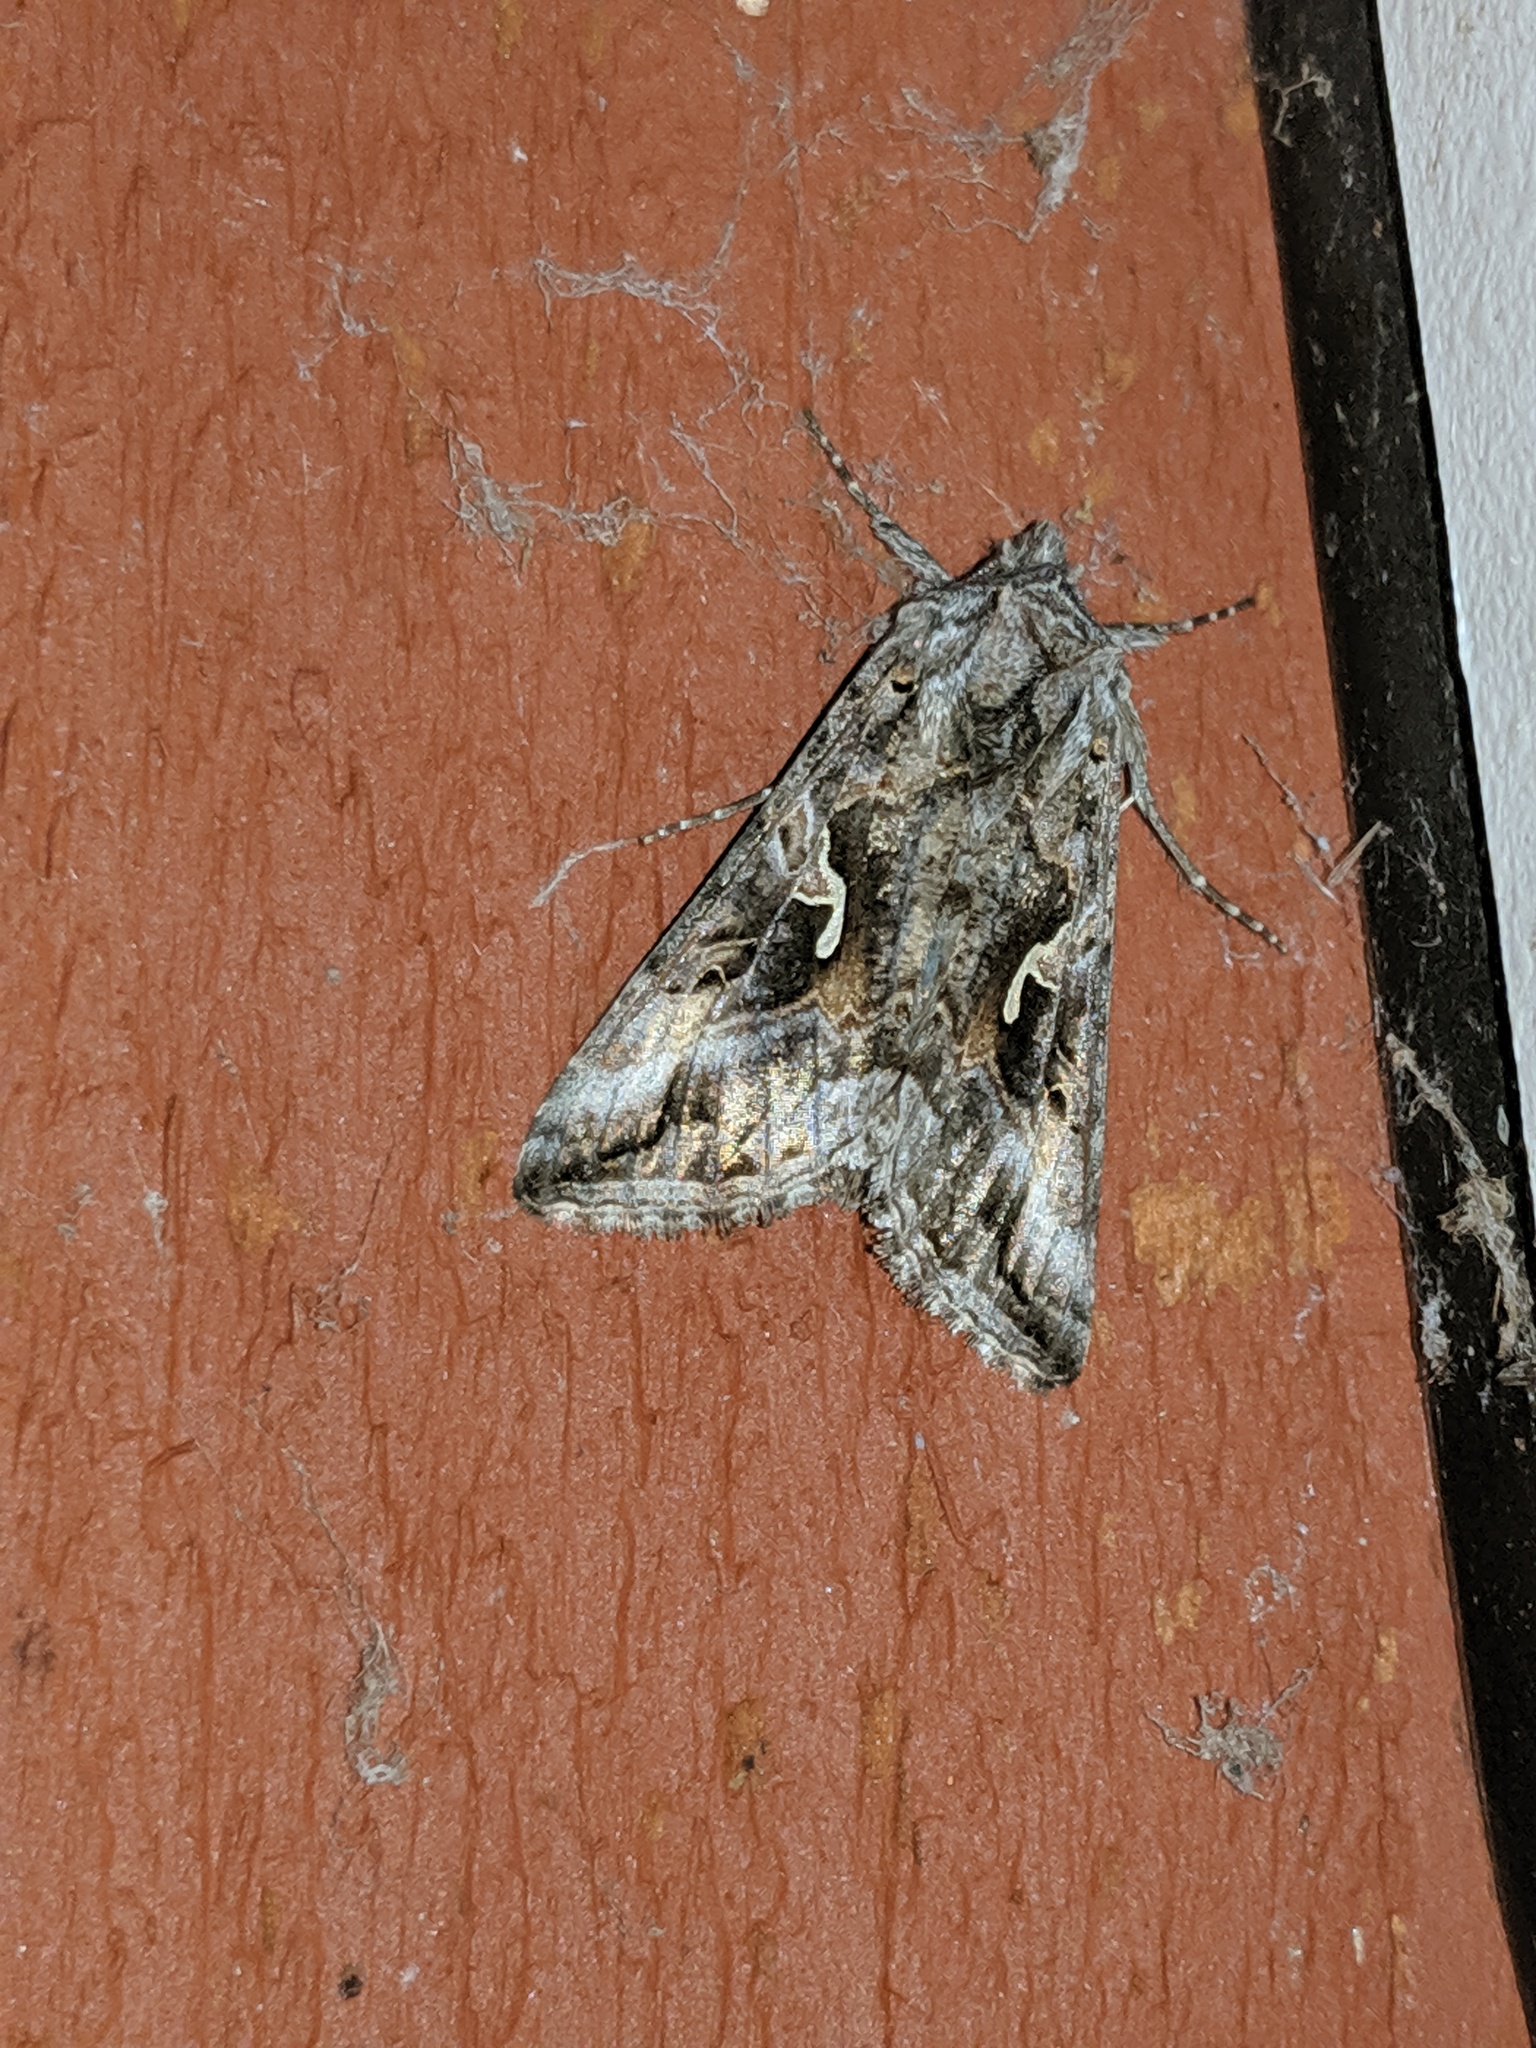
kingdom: Animalia
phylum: Arthropoda
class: Insecta
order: Lepidoptera
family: Noctuidae
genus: Autographa
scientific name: Autographa californica
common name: Alfalfa looper
